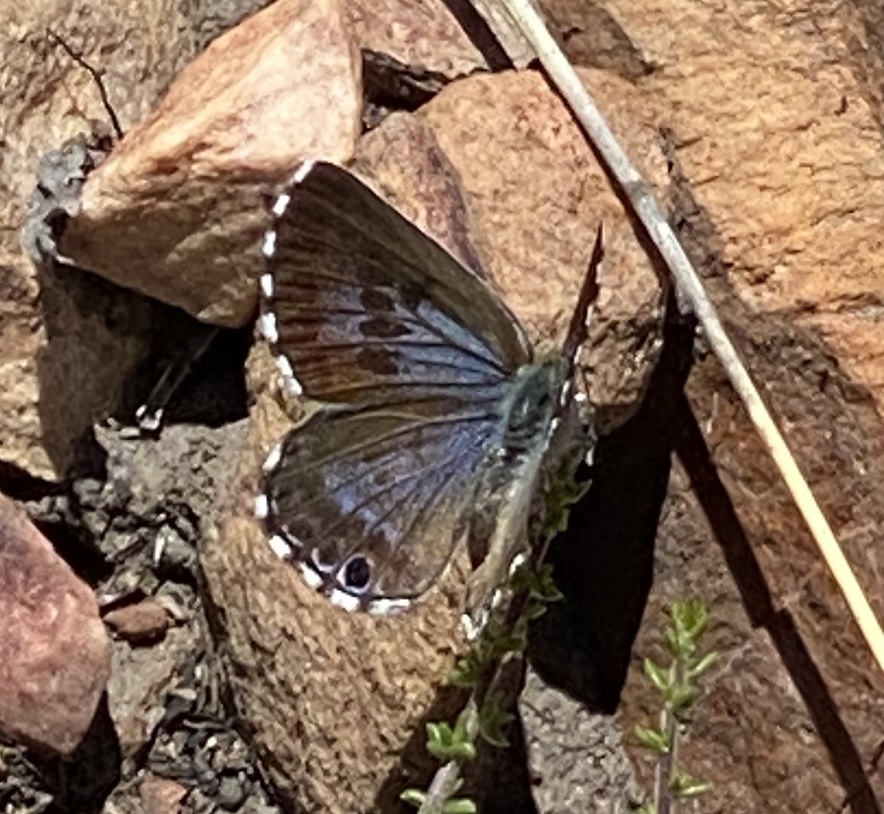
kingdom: Animalia
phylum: Arthropoda
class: Insecta
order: Lepidoptera
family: Lycaenidae
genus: Lepidochrysops
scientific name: Lepidochrysops australis
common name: Southern blue
